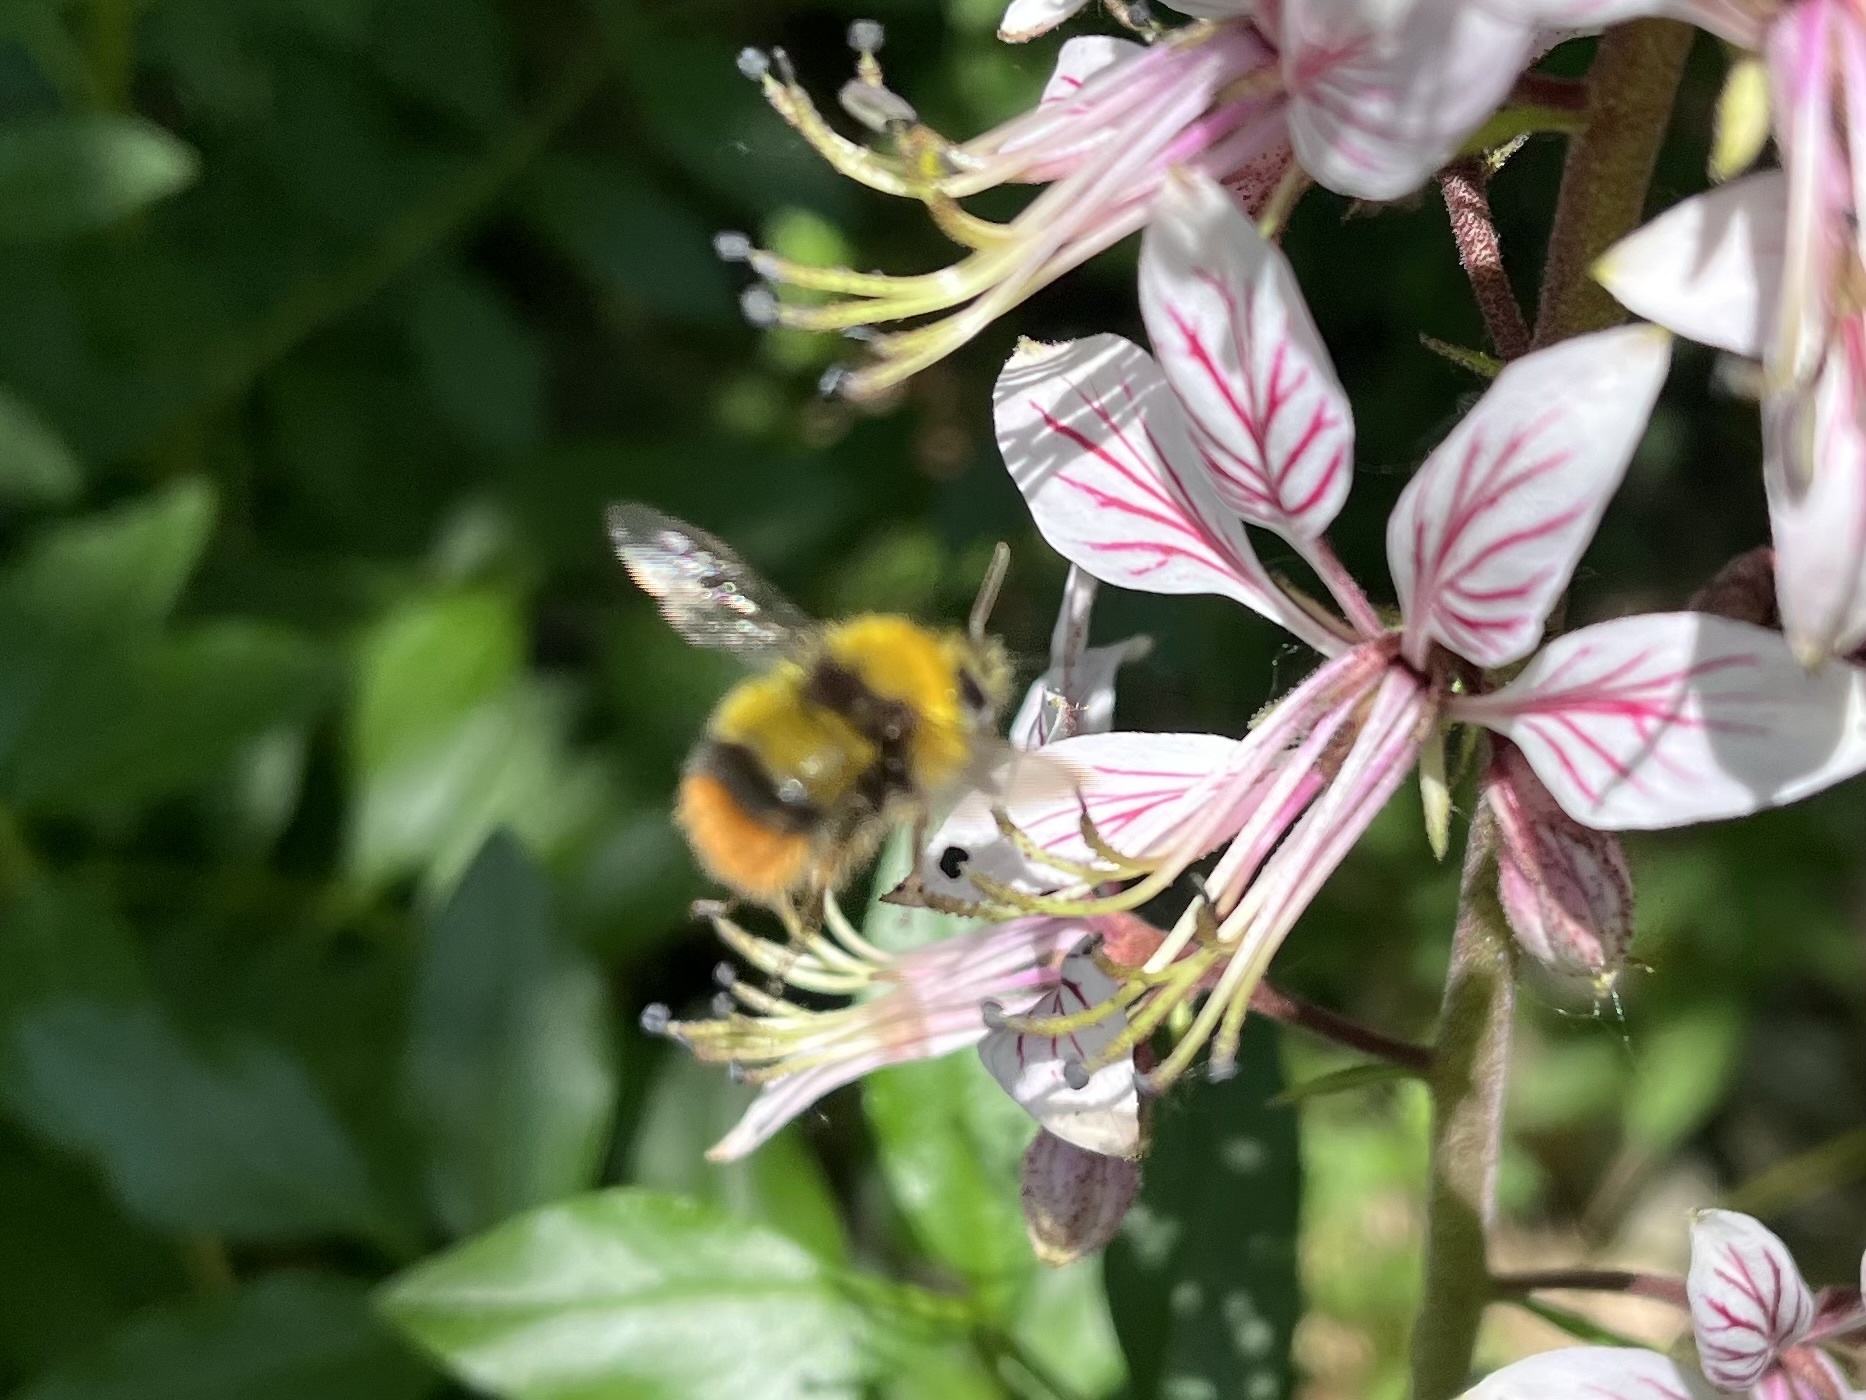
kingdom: Animalia
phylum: Arthropoda
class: Insecta
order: Hymenoptera
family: Apidae
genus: Bombus
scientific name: Bombus pratorum
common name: Early humble-bee
